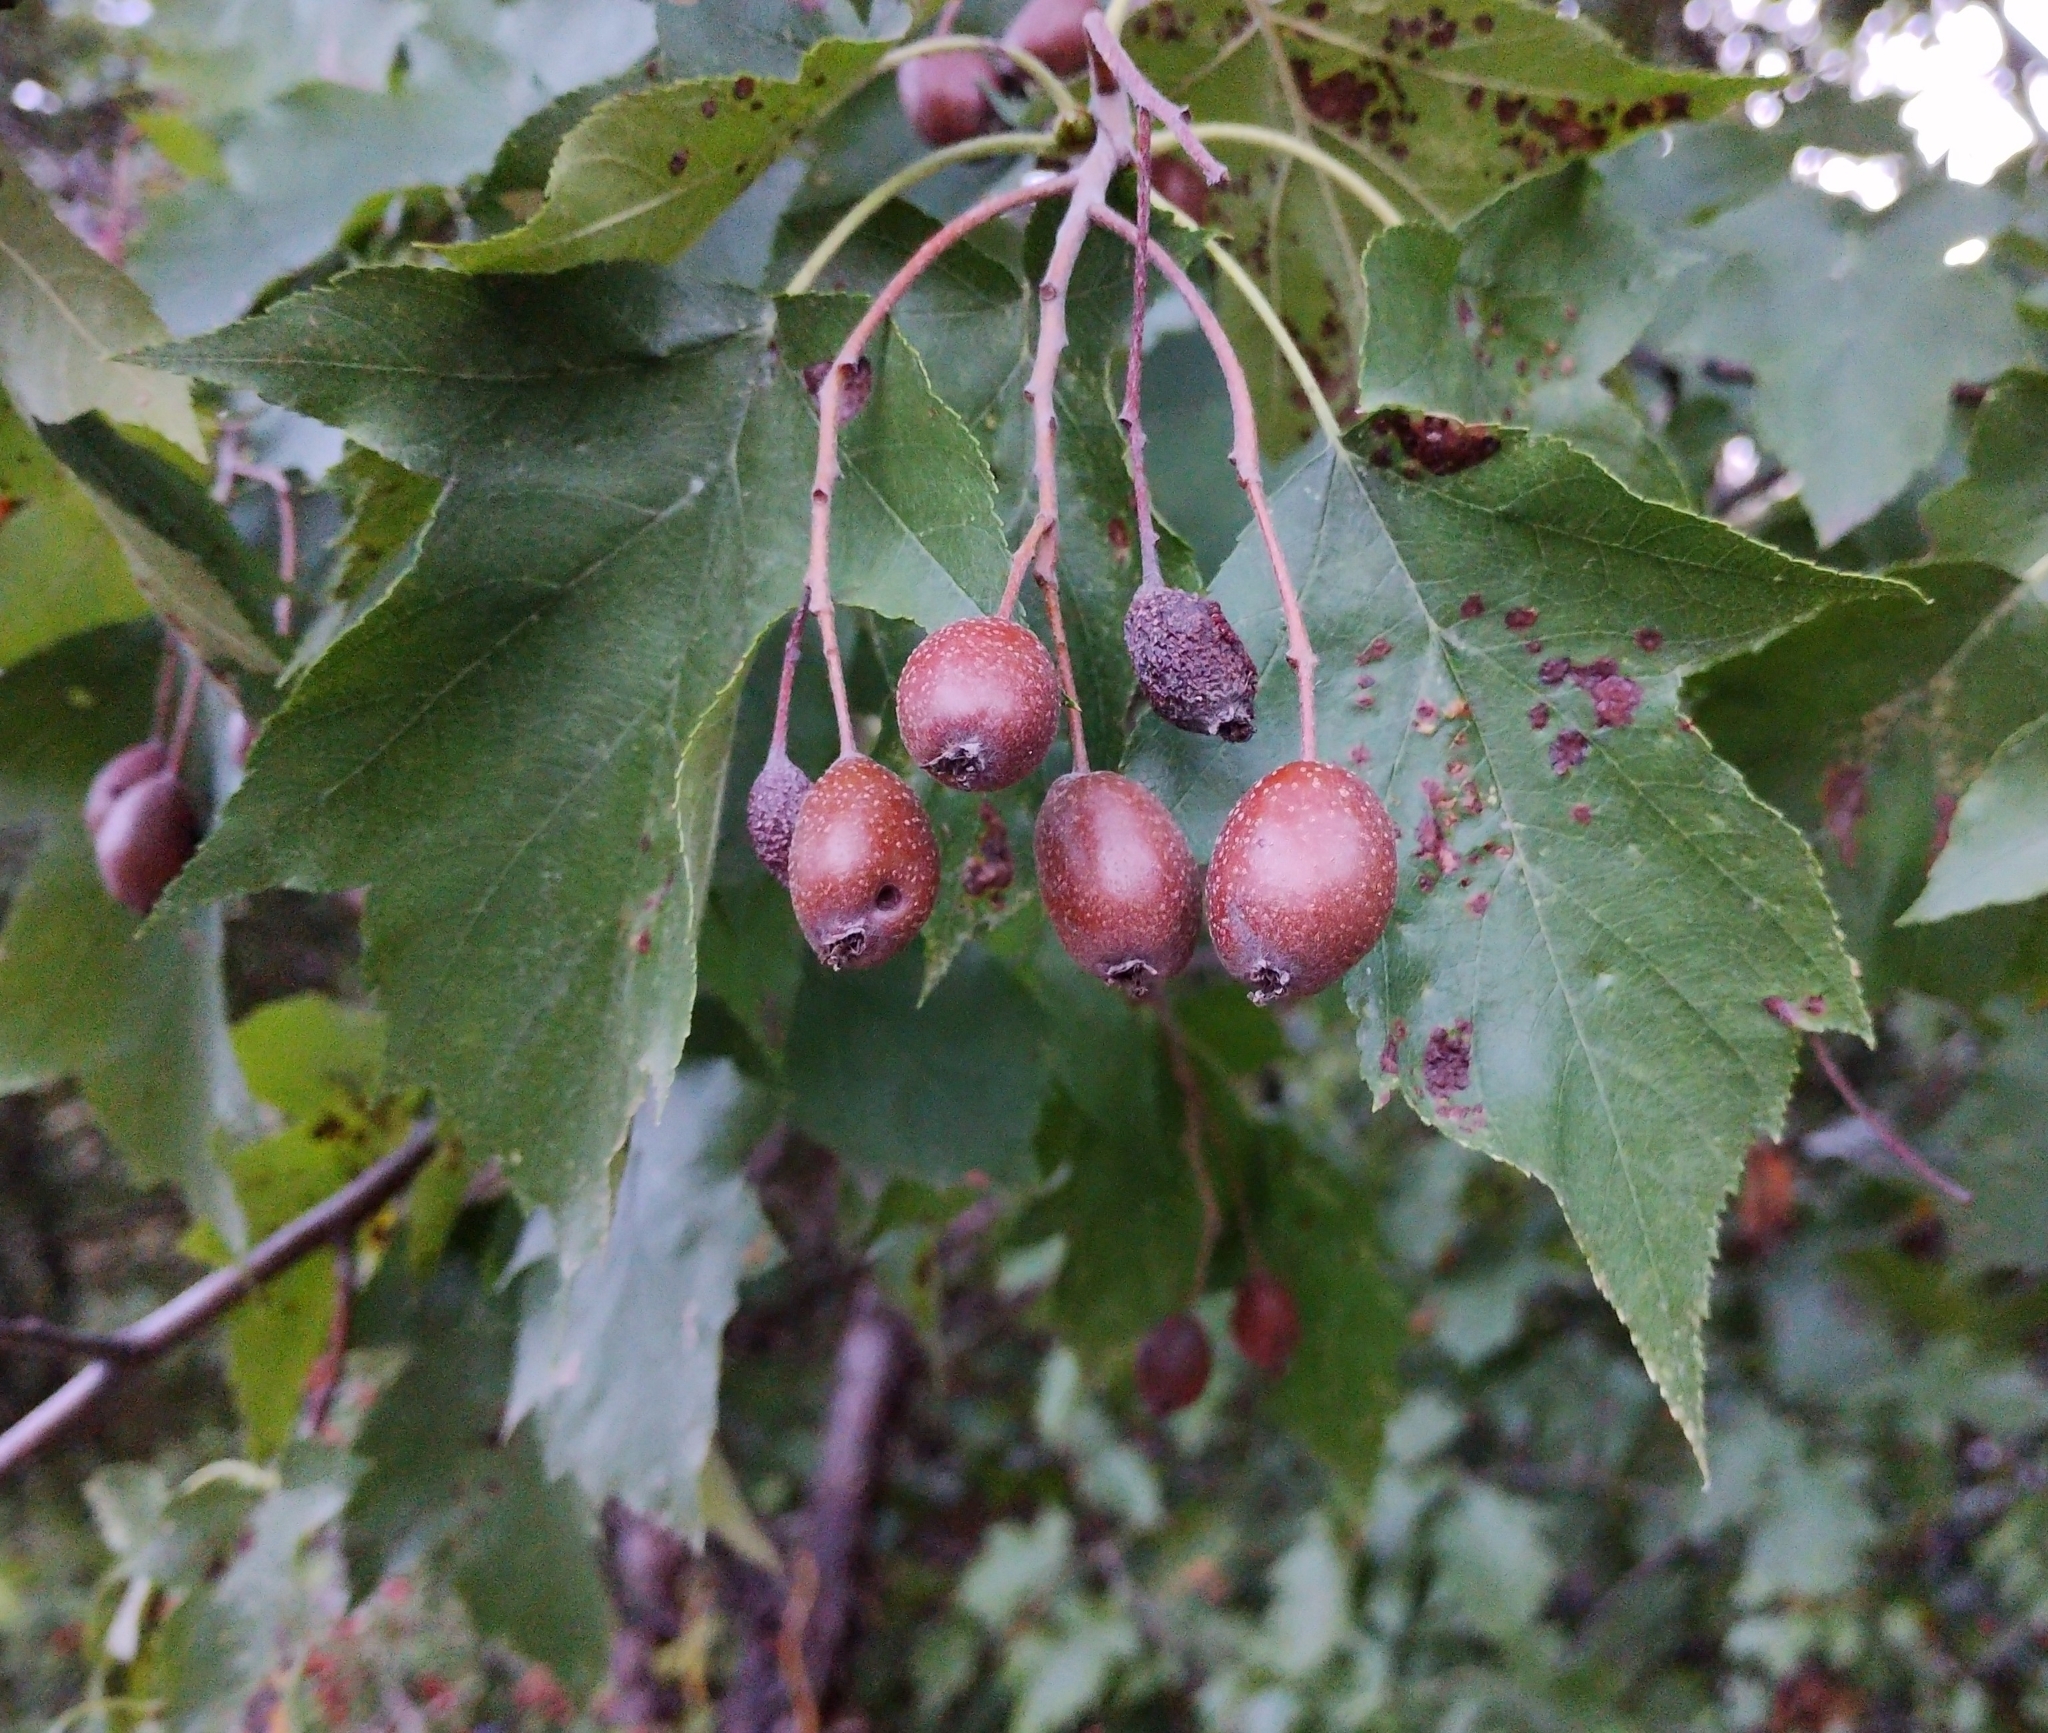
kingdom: Plantae
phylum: Tracheophyta
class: Magnoliopsida
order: Rosales
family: Rosaceae
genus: Torminalis
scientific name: Torminalis glaberrima
